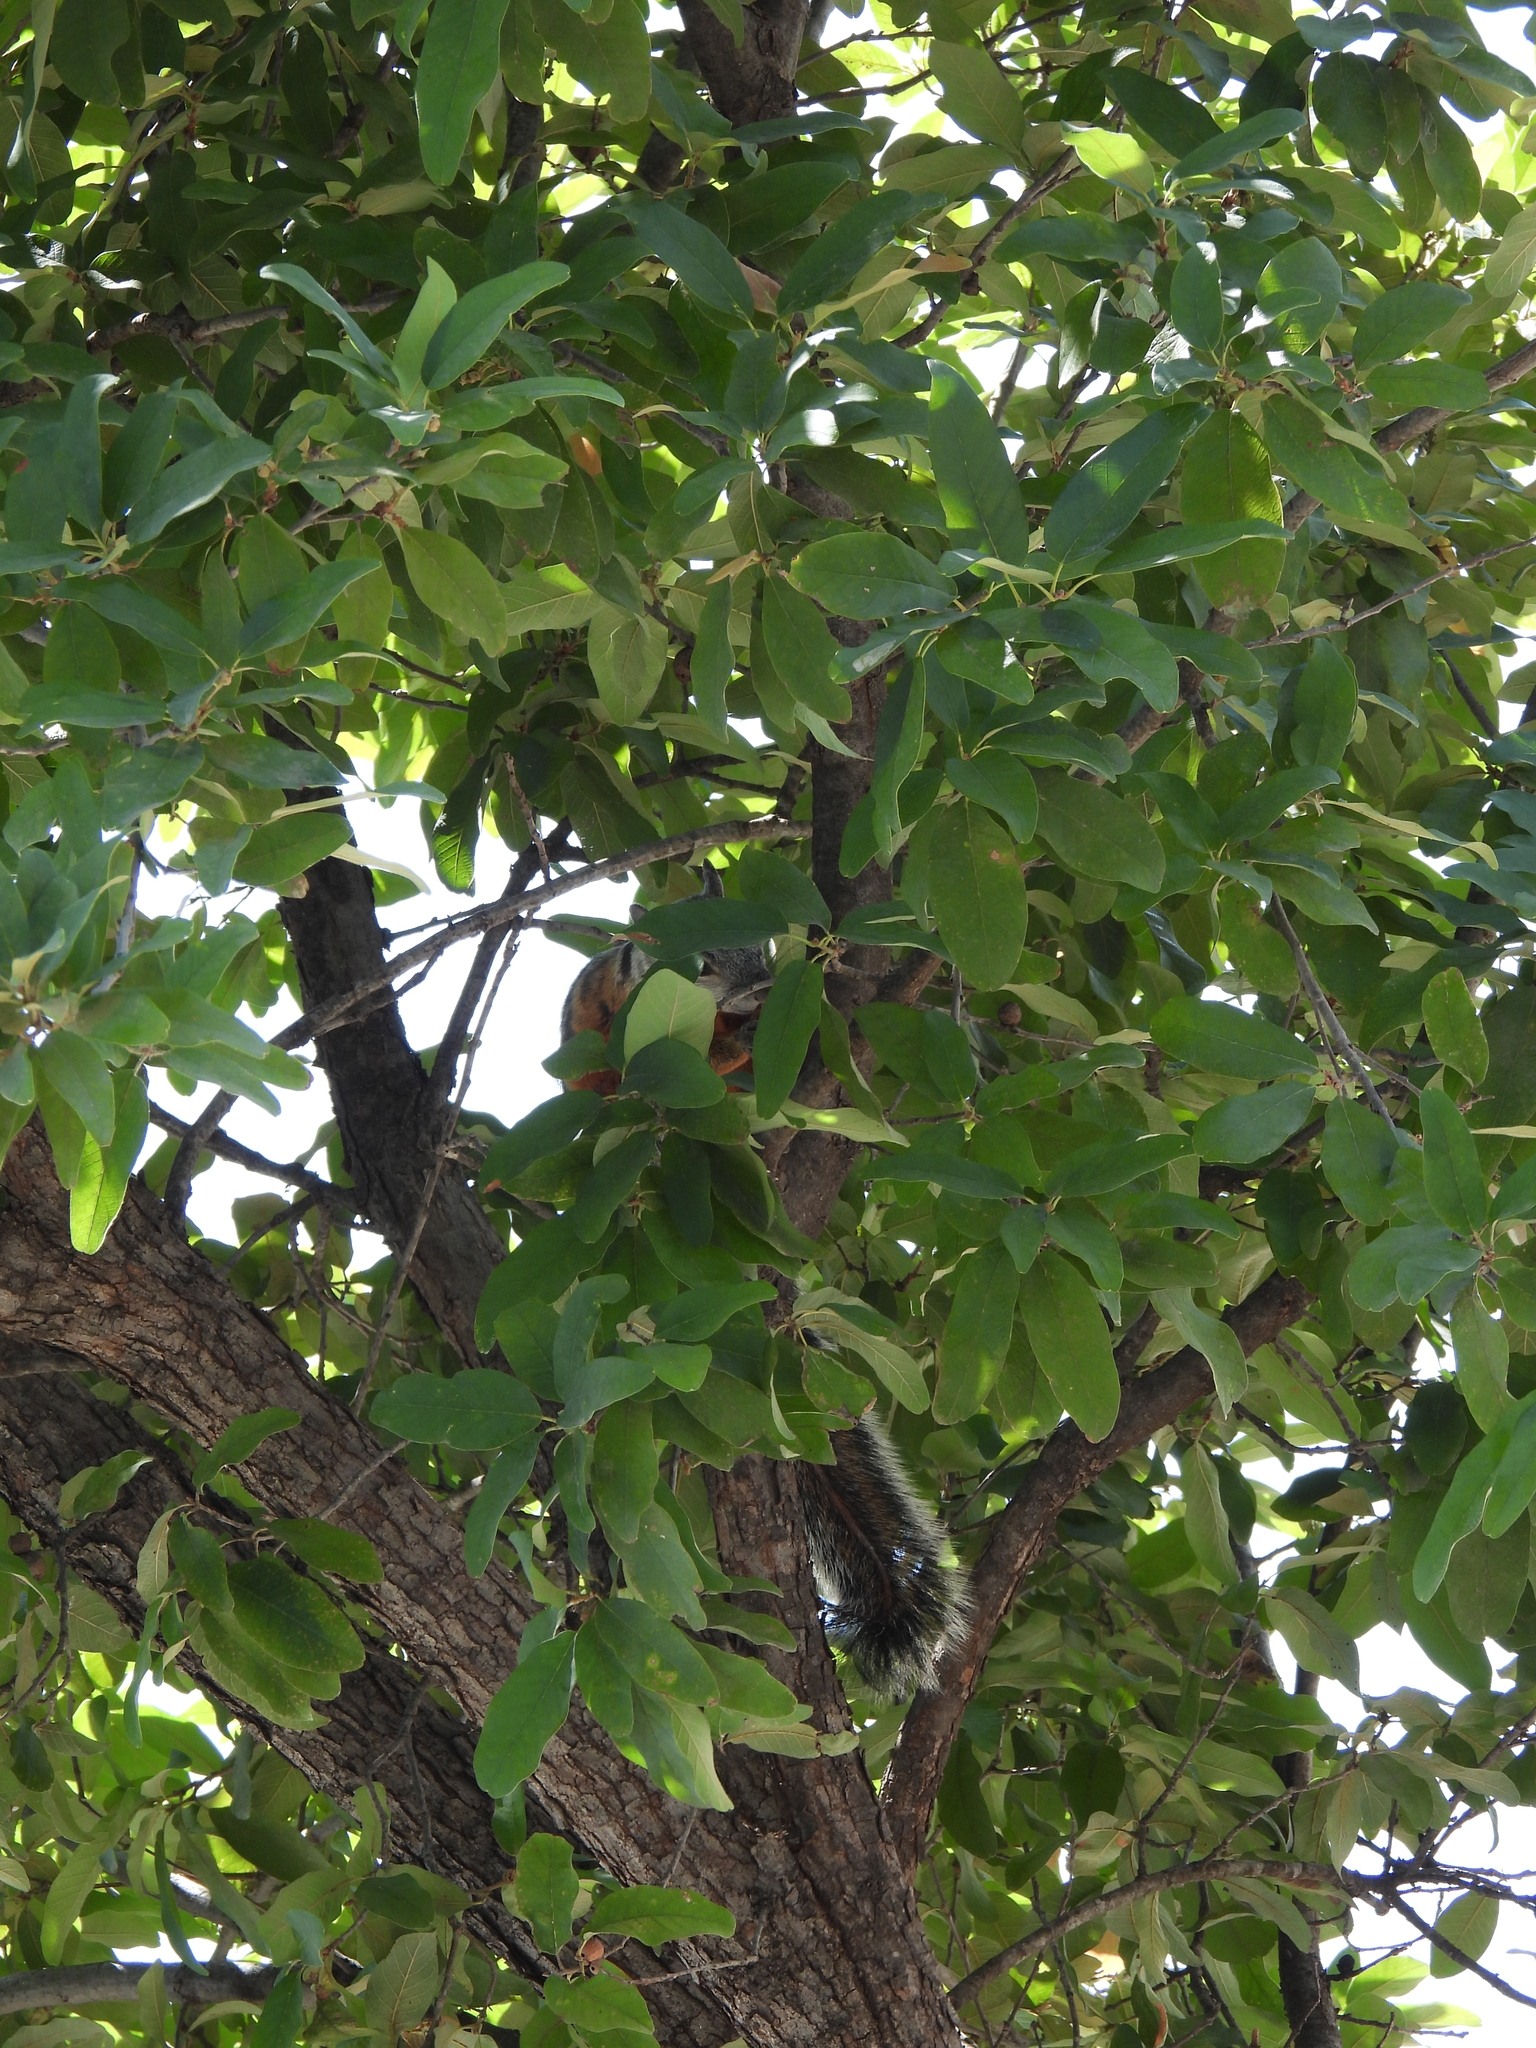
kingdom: Animalia
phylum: Chordata
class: Mammalia
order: Rodentia
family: Sciuridae
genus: Sciurus
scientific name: Sciurus aureogaster
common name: Red-bellied squirrel
